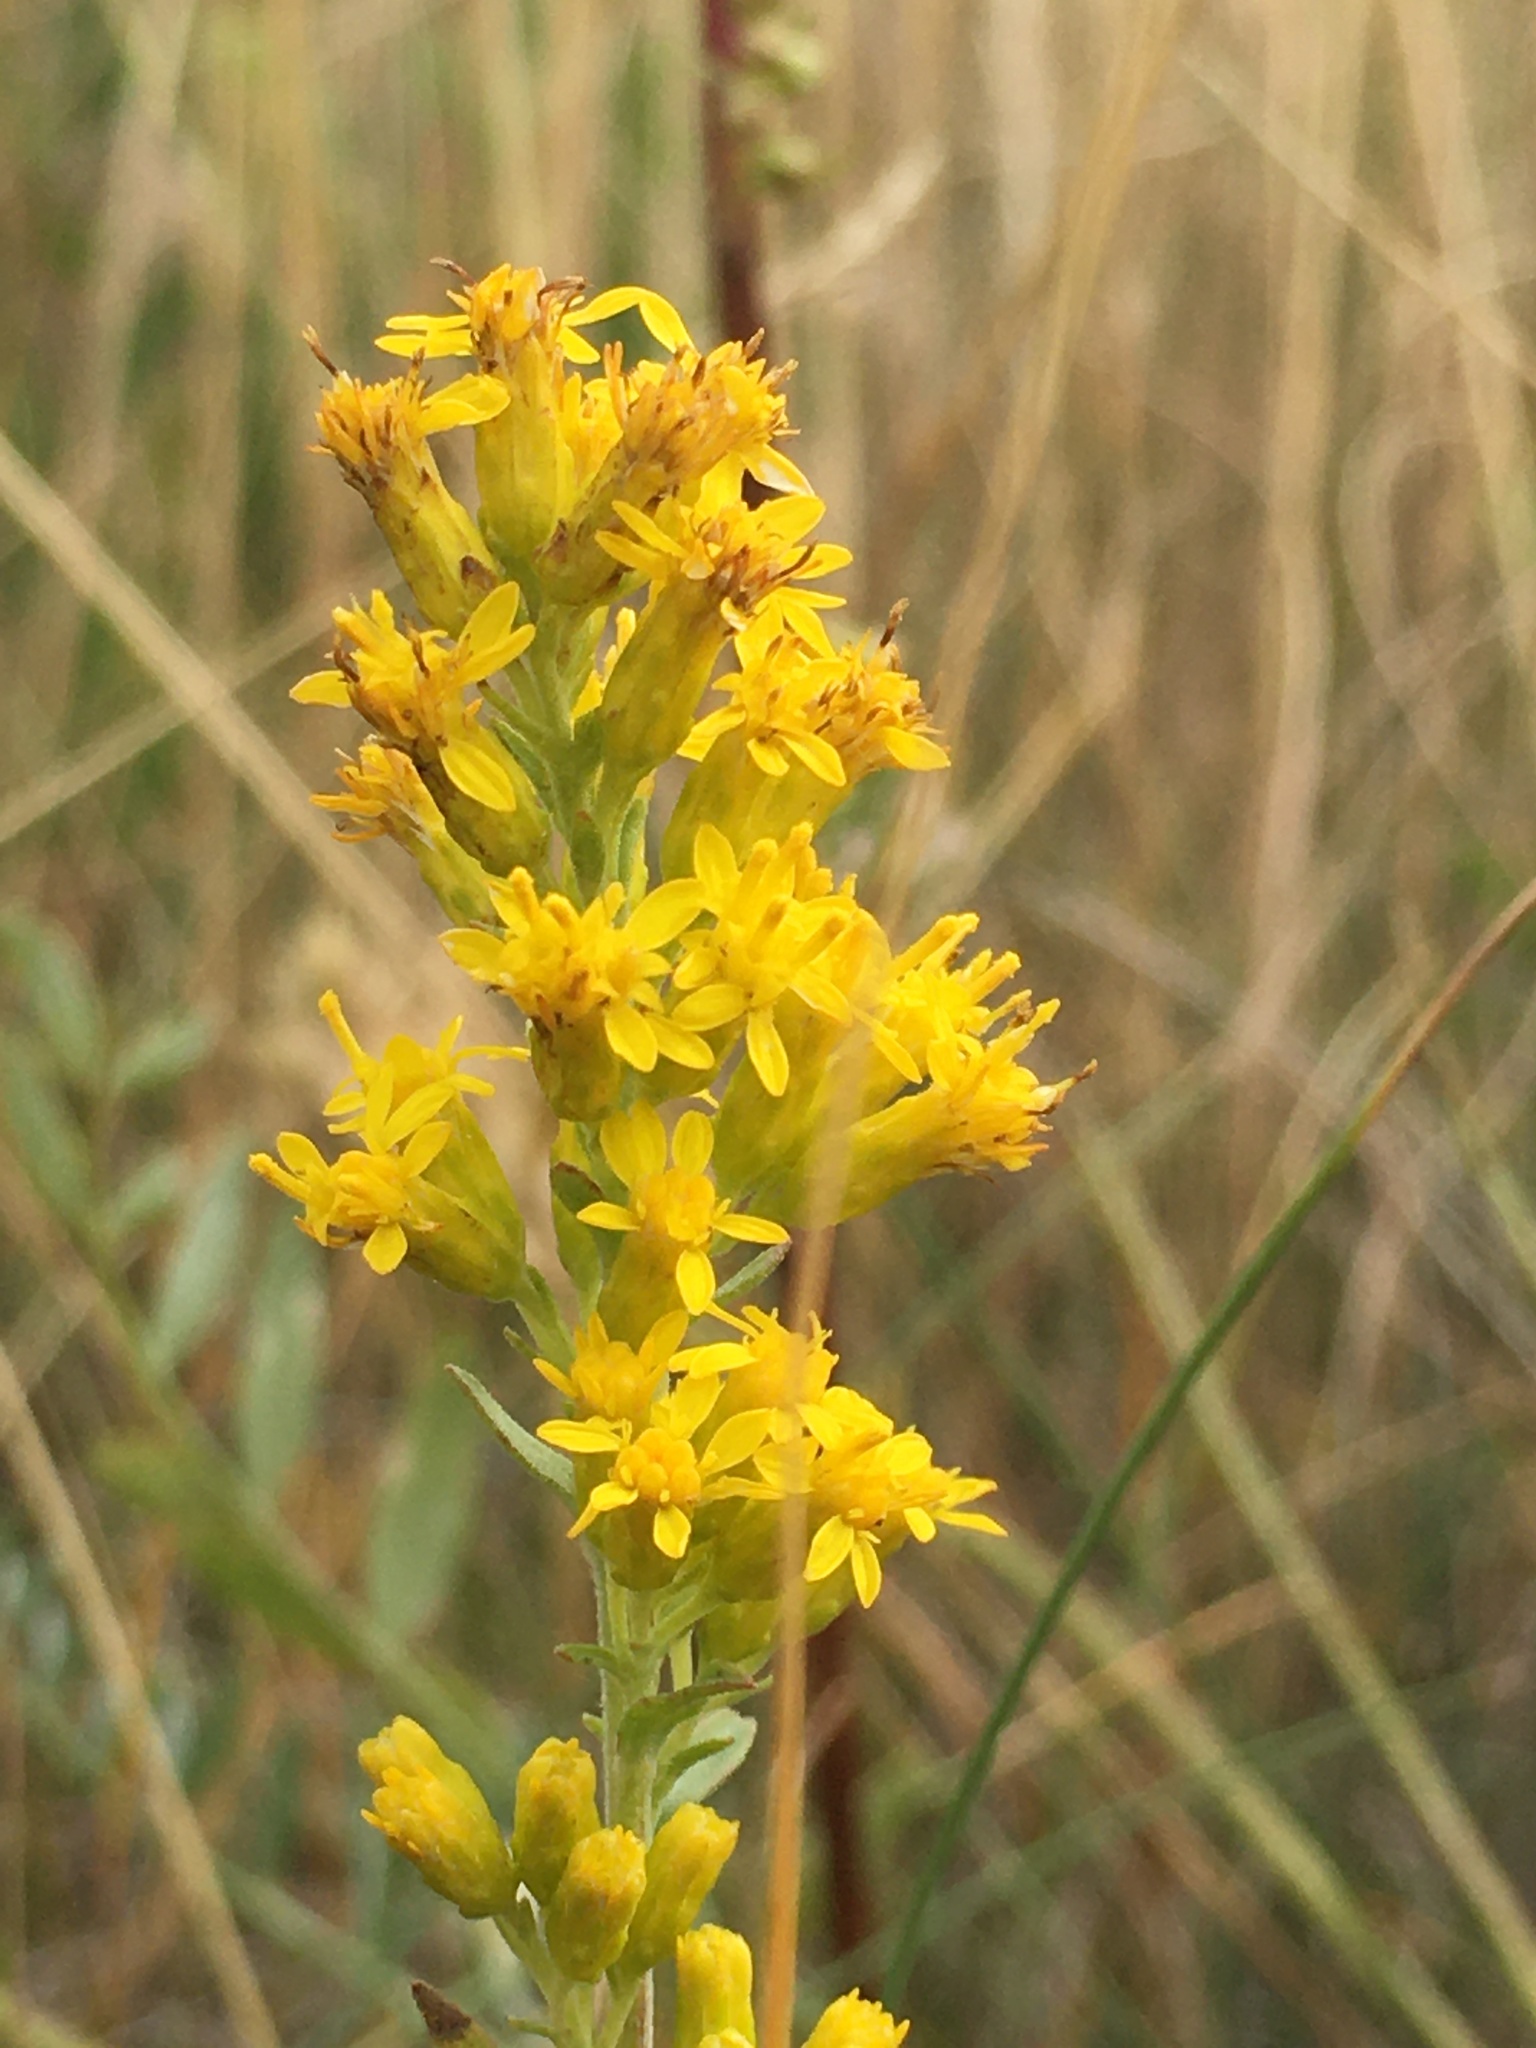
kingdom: Plantae
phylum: Tracheophyta
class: Magnoliopsida
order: Asterales
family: Asteraceae
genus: Solidago
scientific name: Solidago missouriensis
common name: Prairie goldenrod
